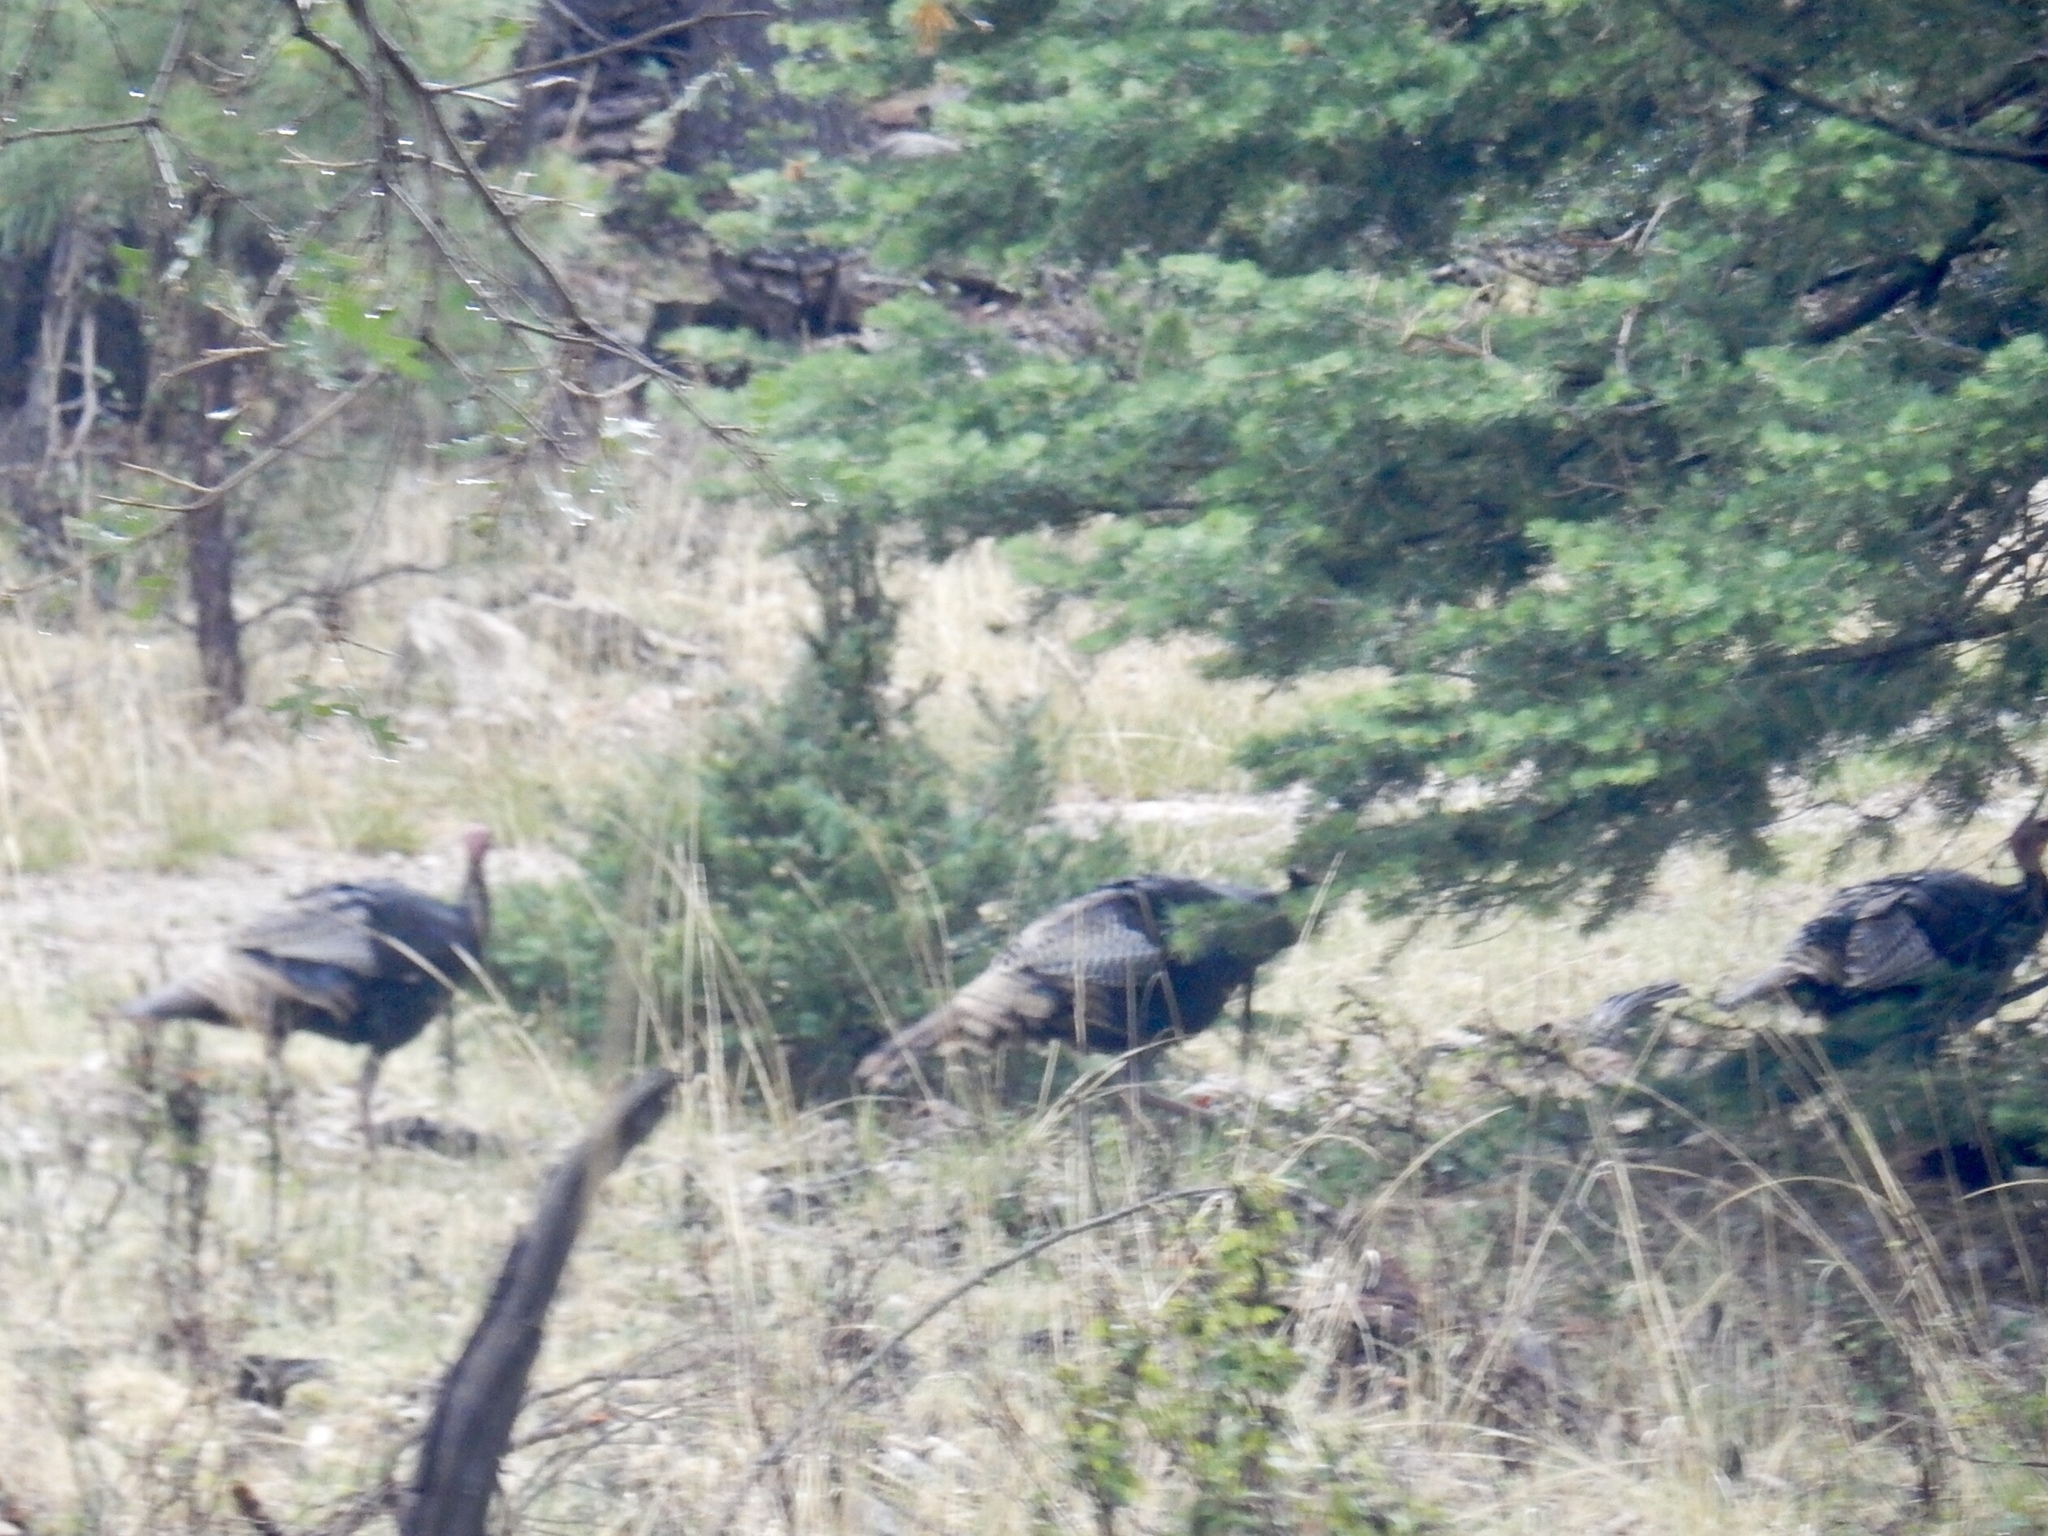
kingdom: Animalia
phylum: Chordata
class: Aves
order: Galliformes
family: Phasianidae
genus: Meleagris
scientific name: Meleagris gallopavo
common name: Wild turkey
